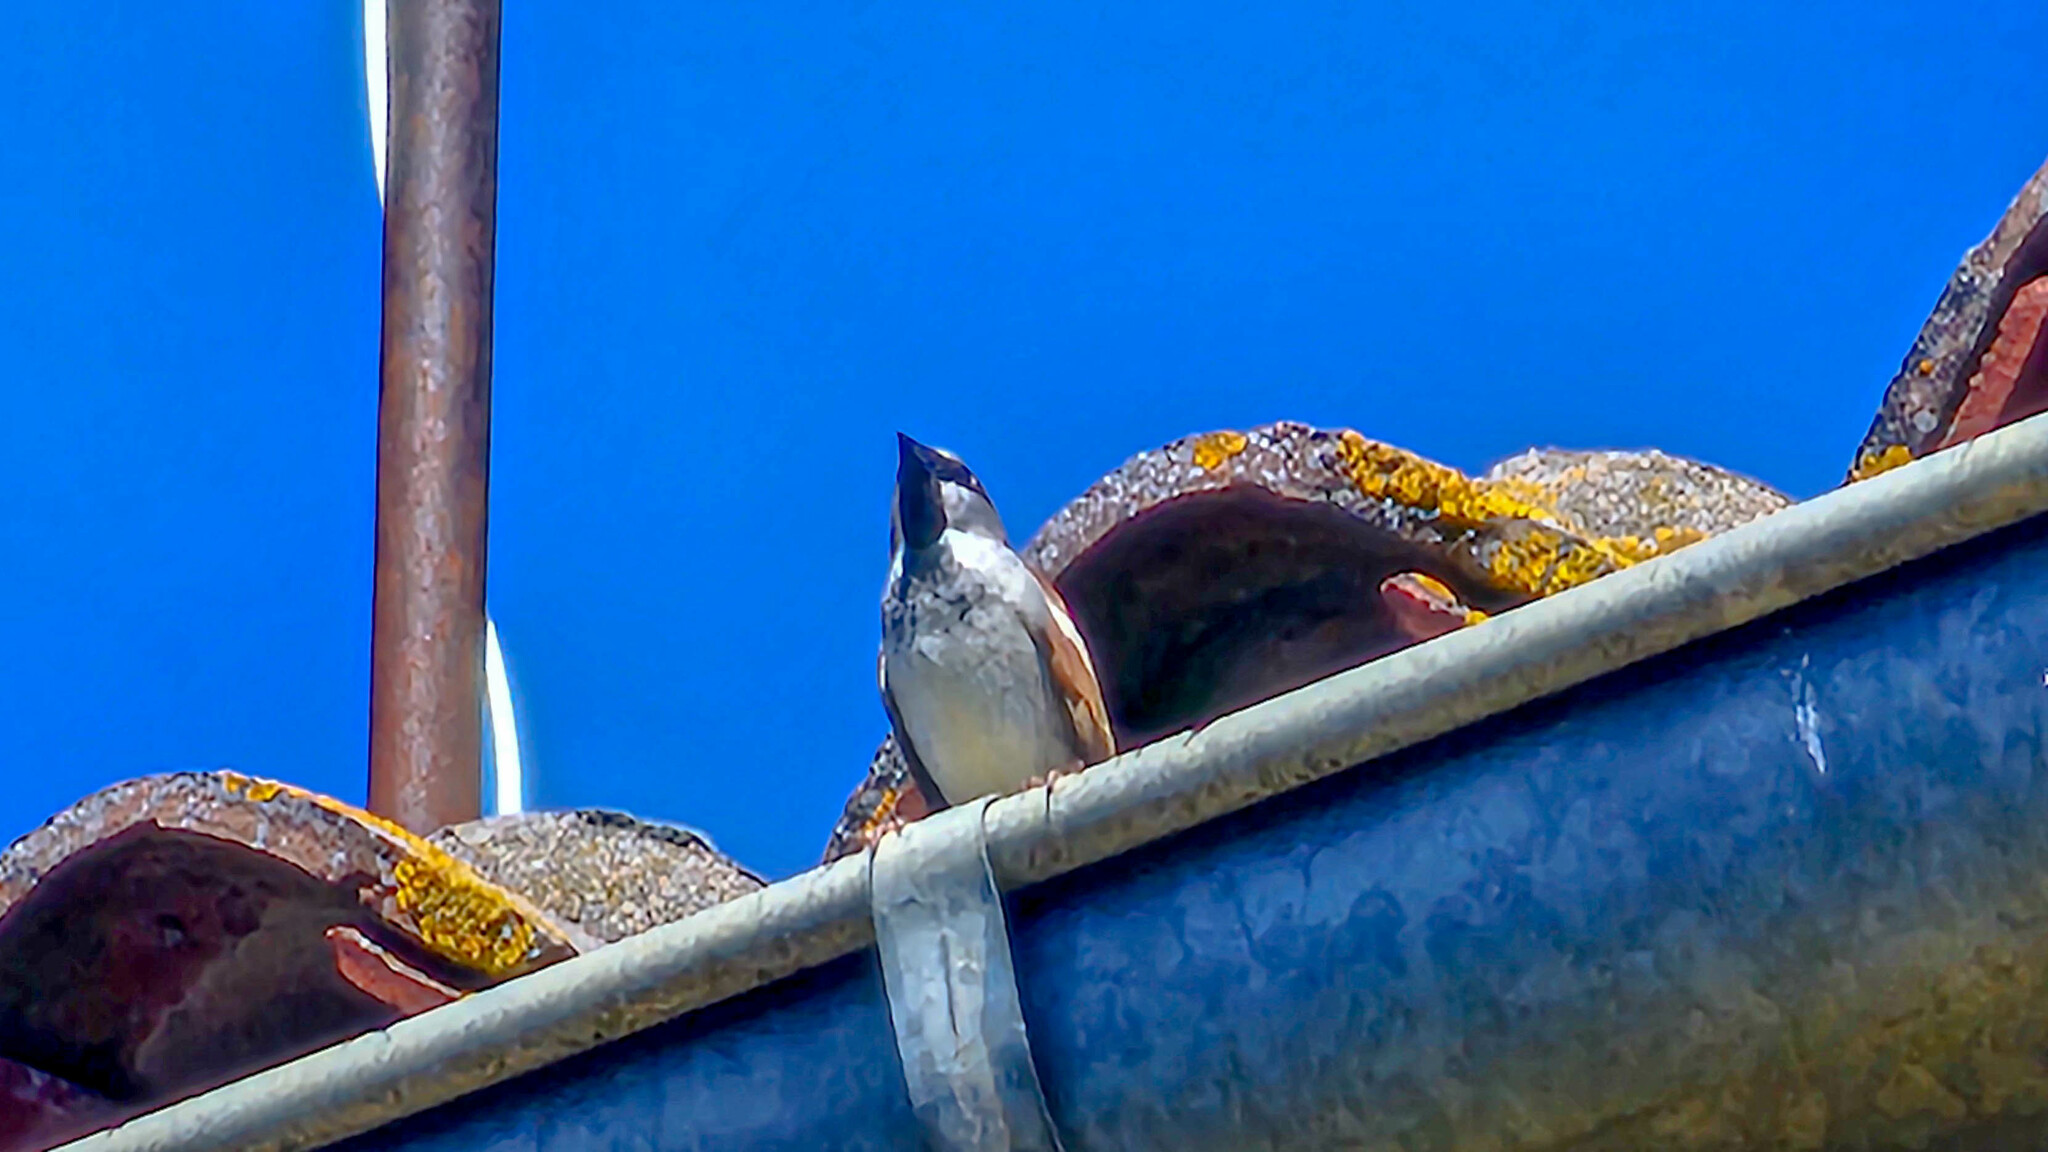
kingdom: Animalia
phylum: Chordata
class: Aves
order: Passeriformes
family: Passeridae
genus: Passer
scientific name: Passer domesticus
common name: House sparrow
